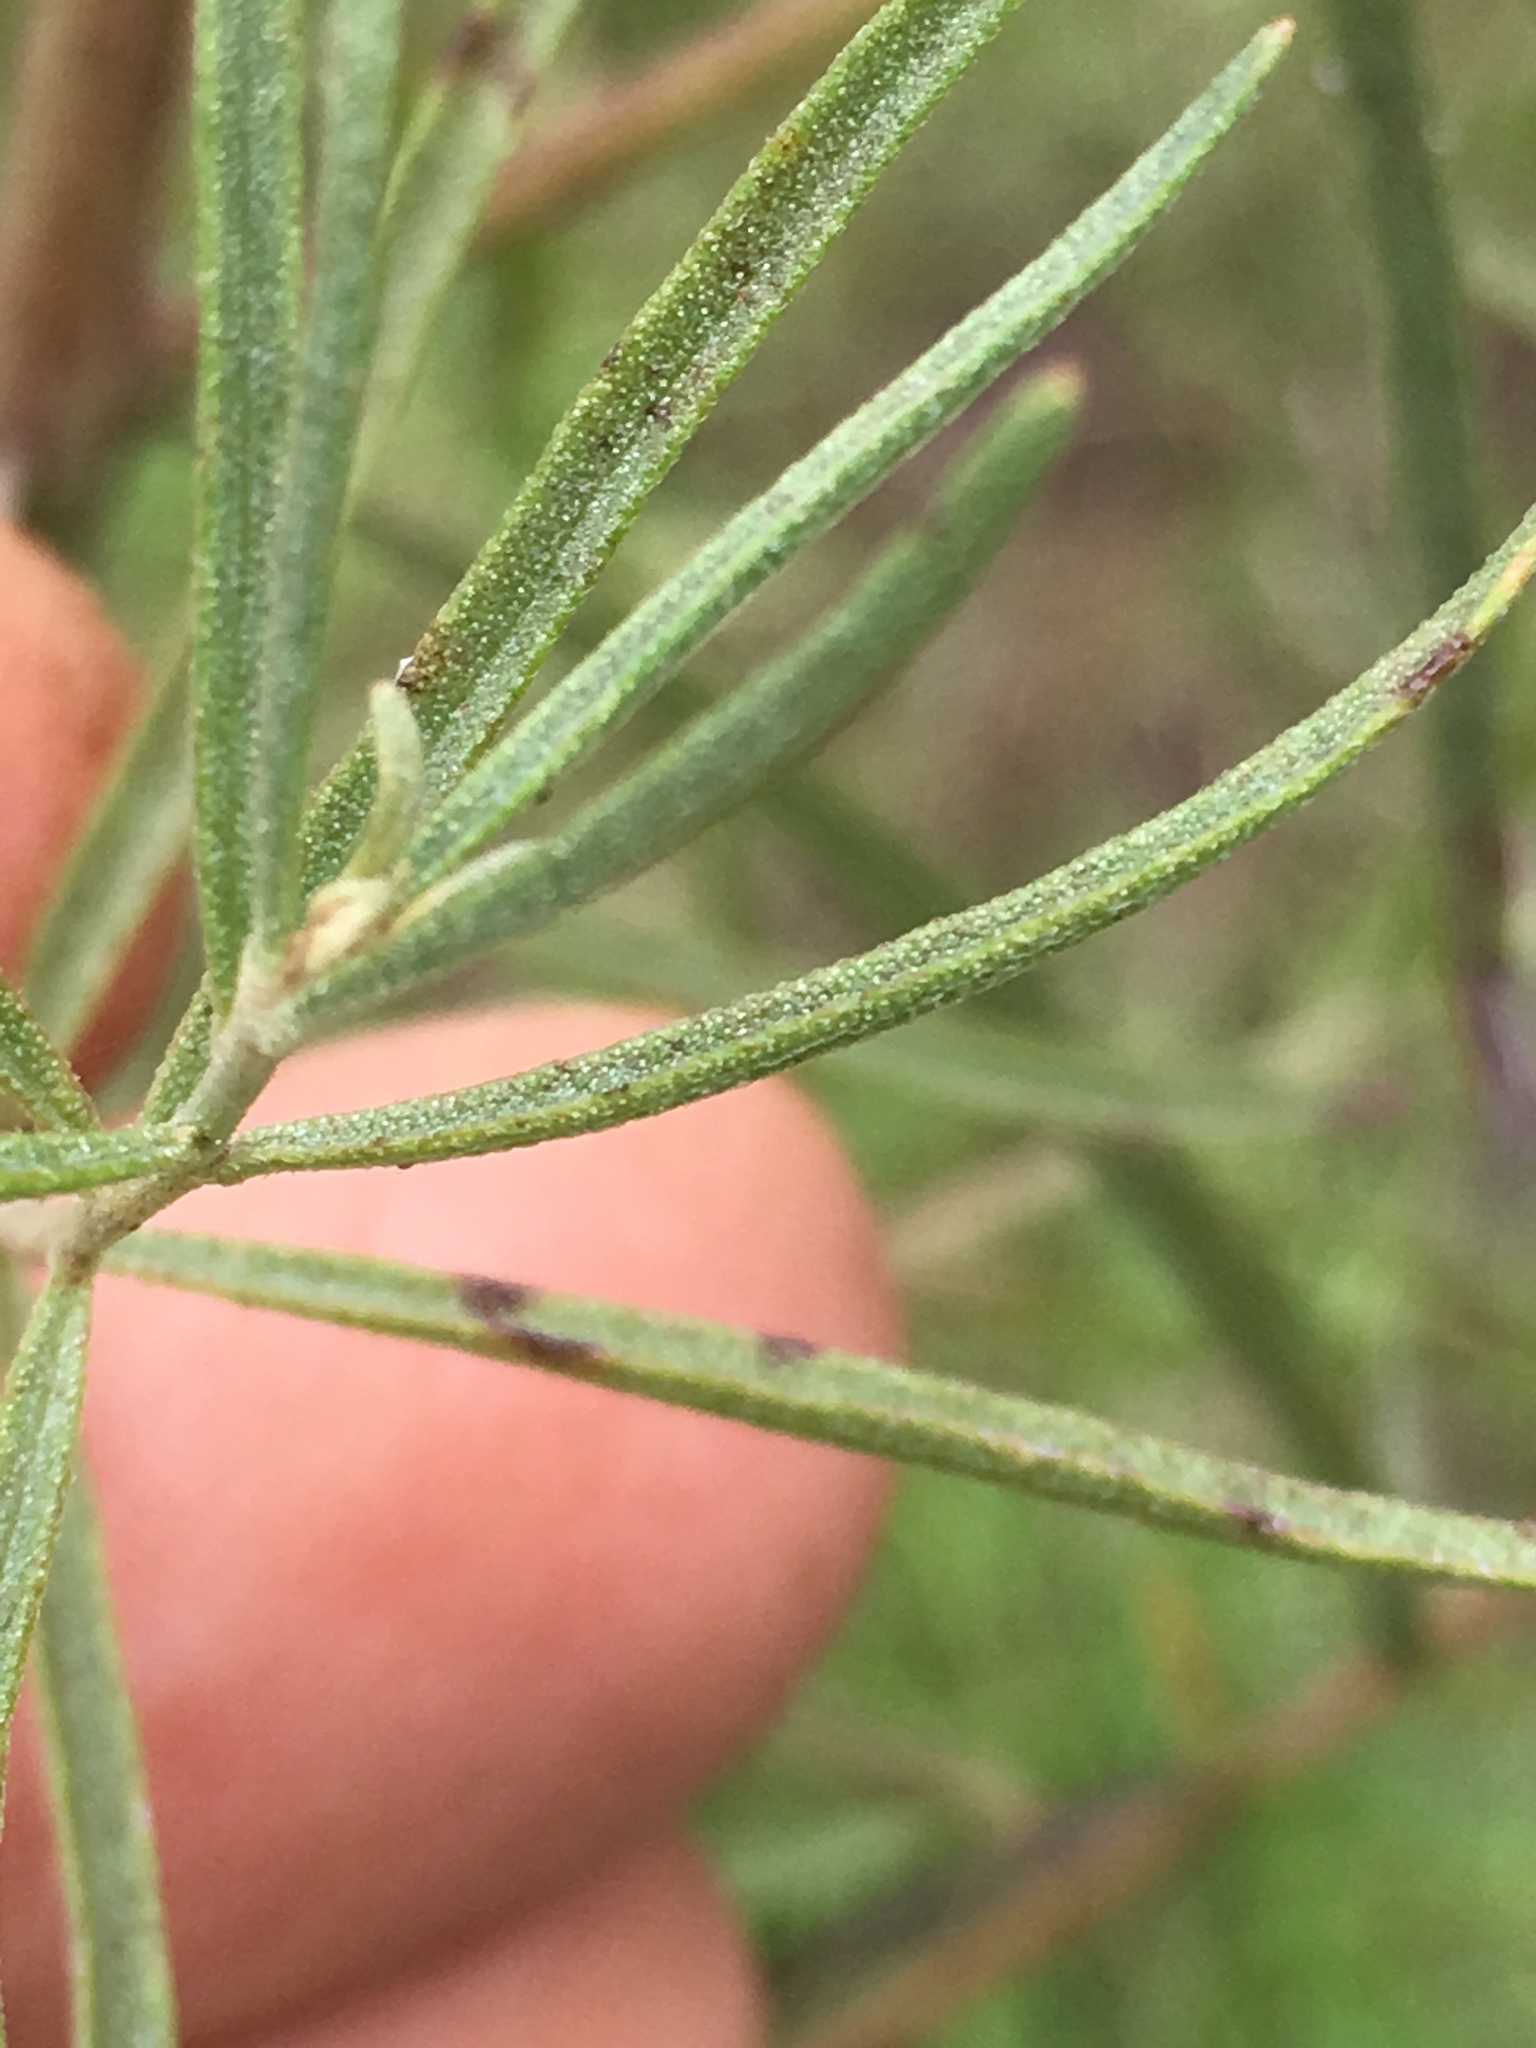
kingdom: Plantae
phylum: Tracheophyta
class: Magnoliopsida
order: Asterales
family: Asteraceae
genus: Eupatorium
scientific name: Eupatorium hyssopifolium
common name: Hyssop-leaf thoroughwort
